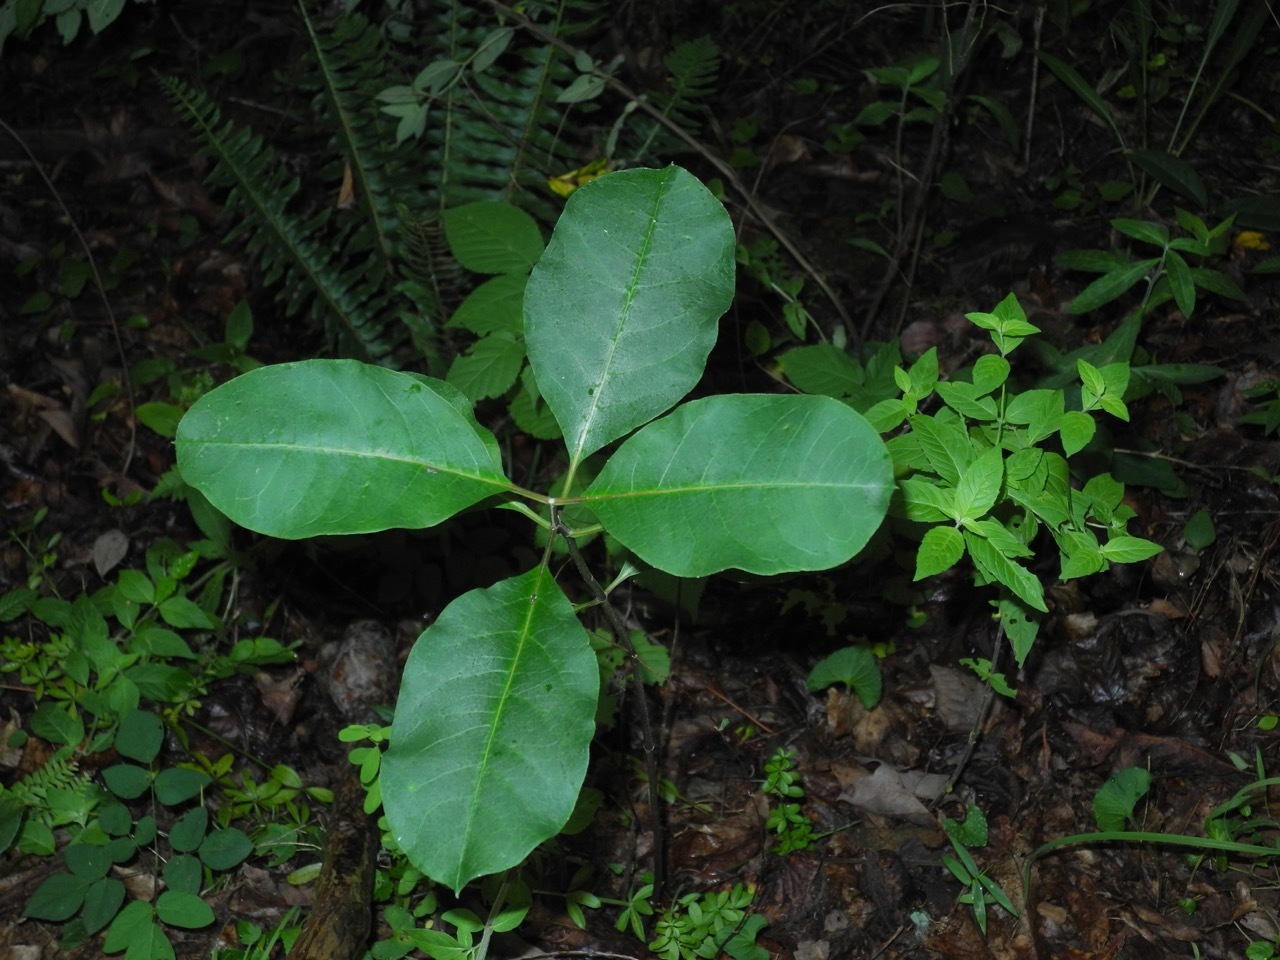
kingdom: Plantae
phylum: Tracheophyta
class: Magnoliopsida
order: Gentianales
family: Apocynaceae
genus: Asclepias
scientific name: Asclepias quadrifolia
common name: Whorled milkweed
